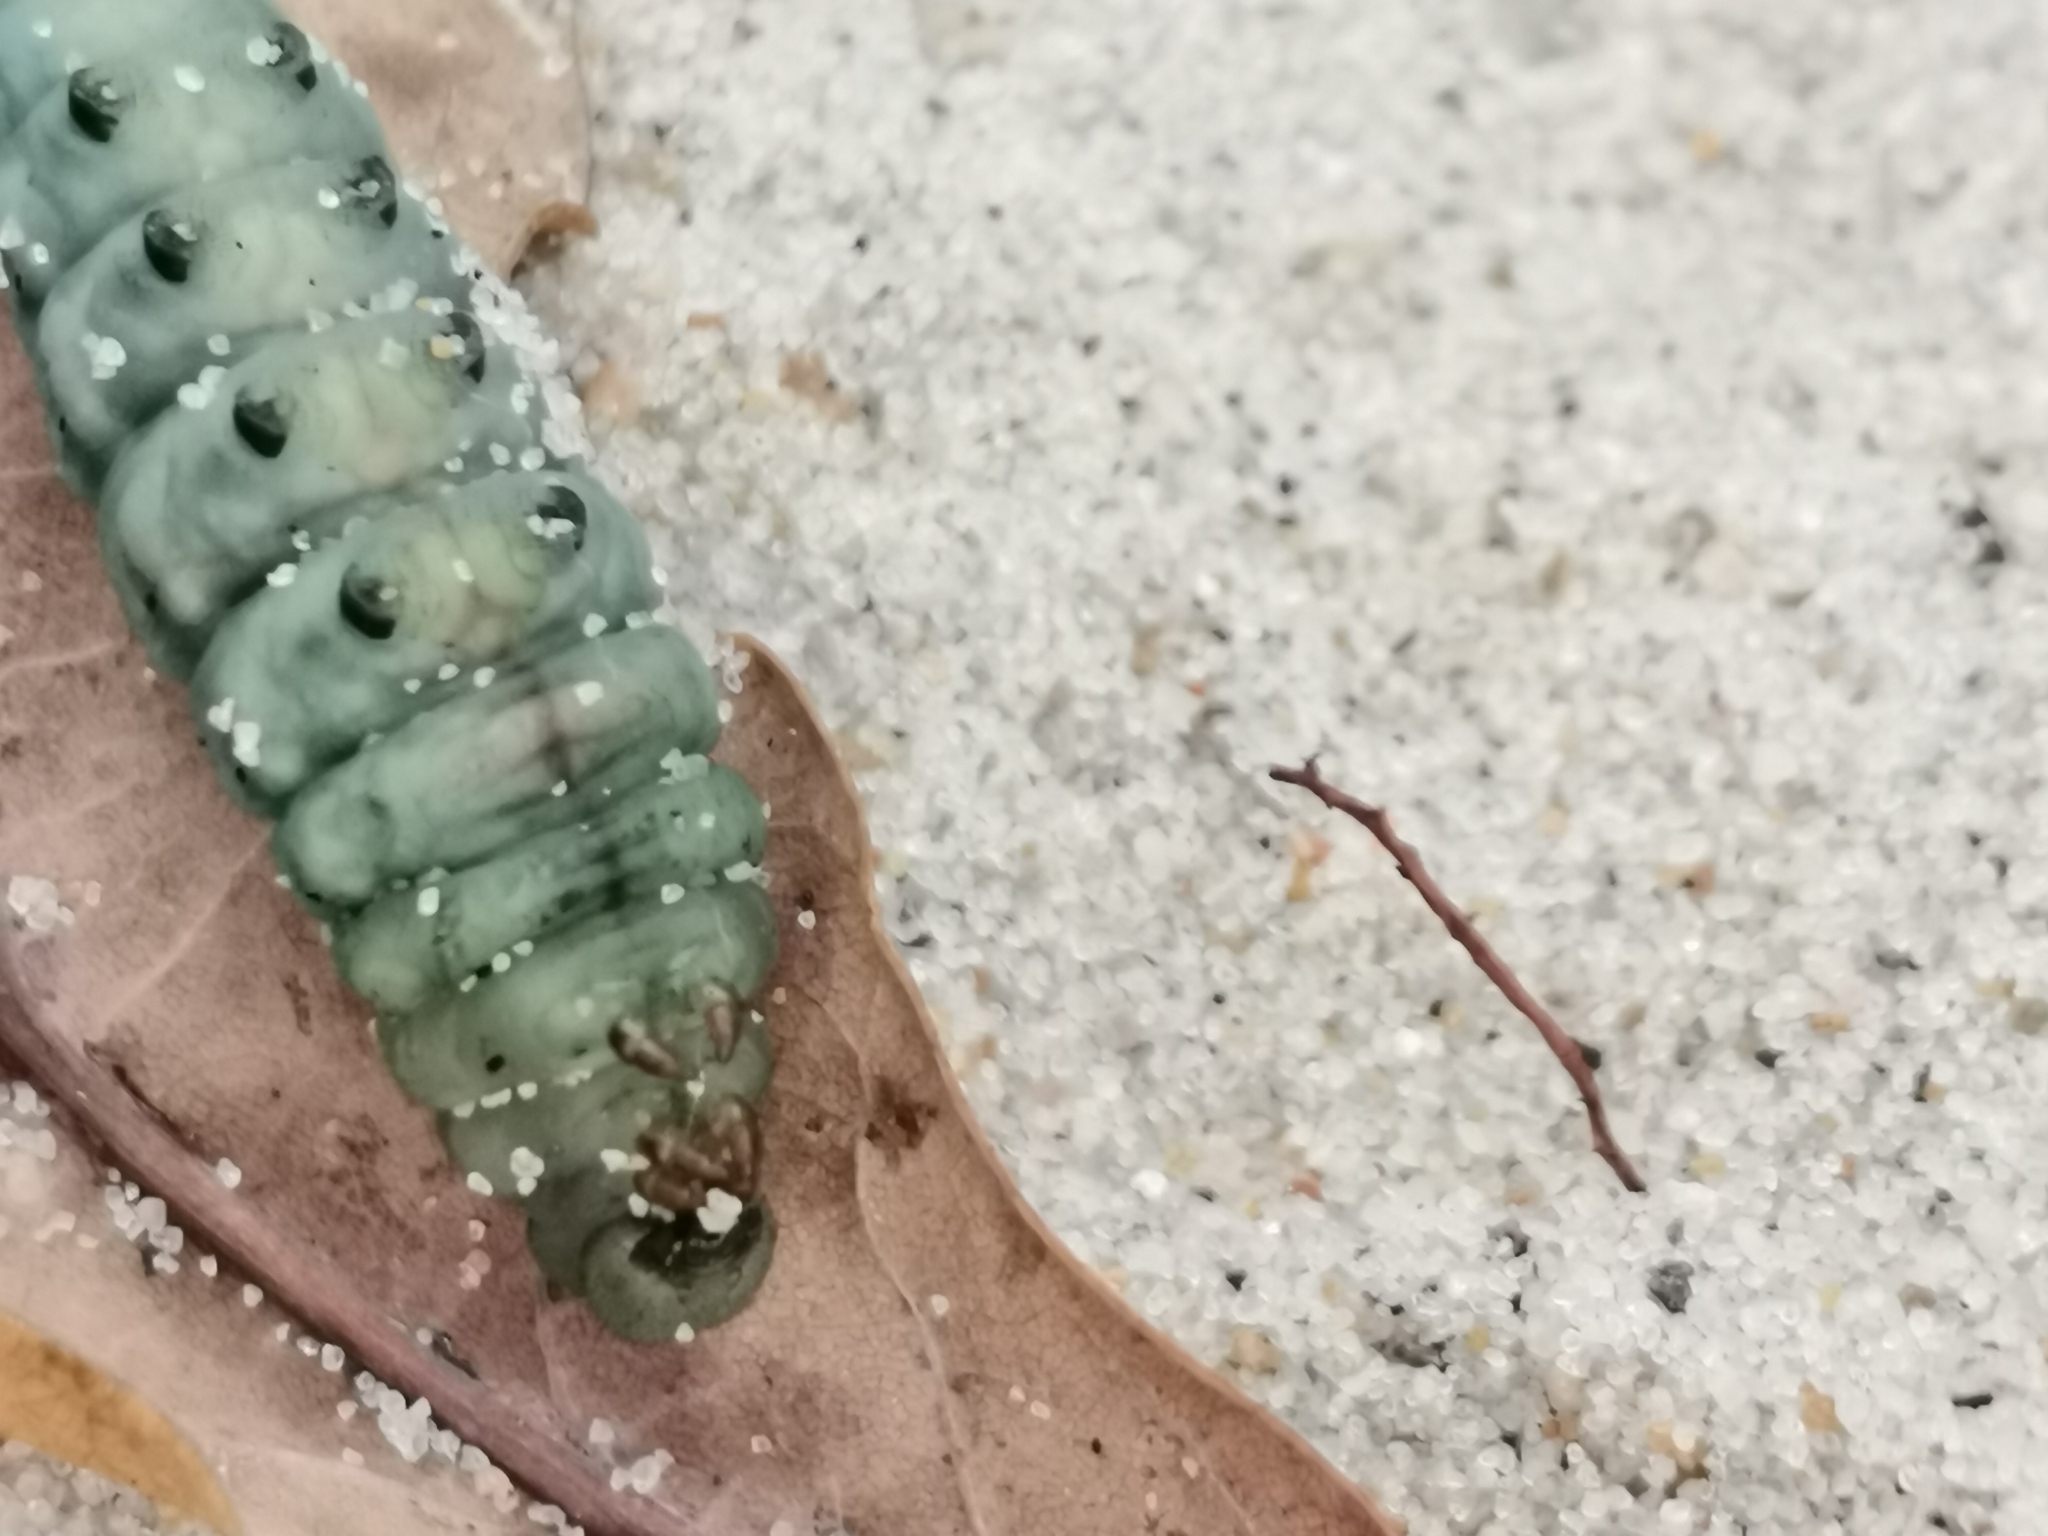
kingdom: Animalia
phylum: Arthropoda
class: Insecta
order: Lepidoptera
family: Sphingidae
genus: Macroglossum
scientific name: Macroglossum stellatarum
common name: Humming-bird hawk-moth
